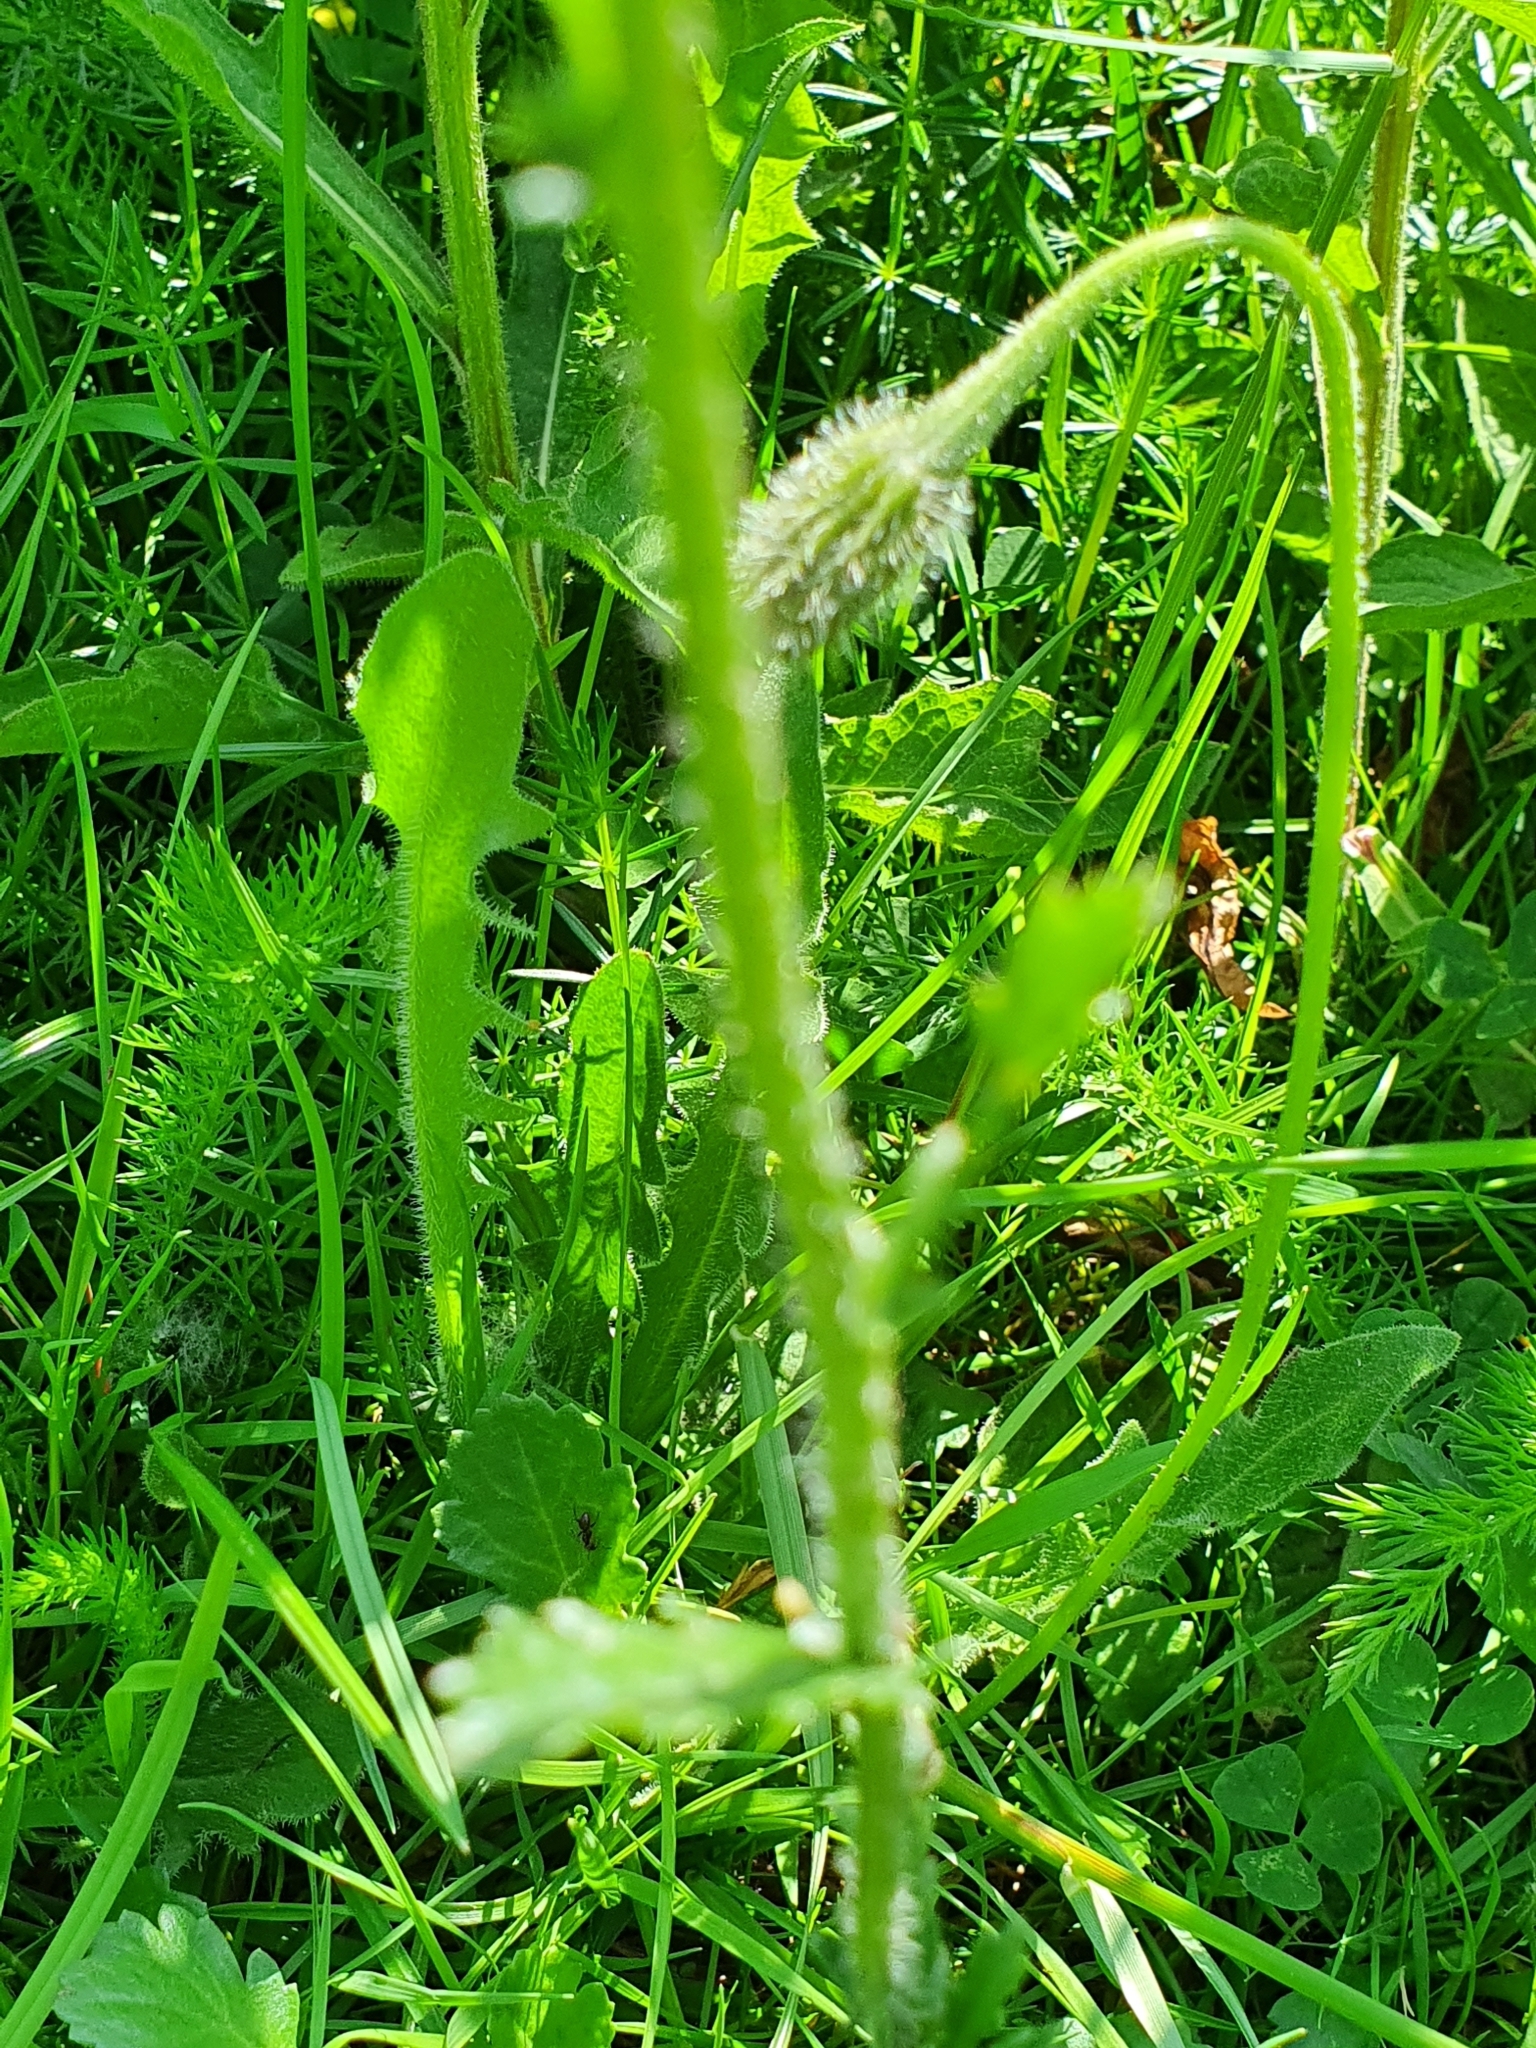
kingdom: Plantae
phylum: Tracheophyta
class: Magnoliopsida
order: Asterales
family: Asteraceae
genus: Leucanthemum
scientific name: Leucanthemum vulgare
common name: Oxeye daisy
